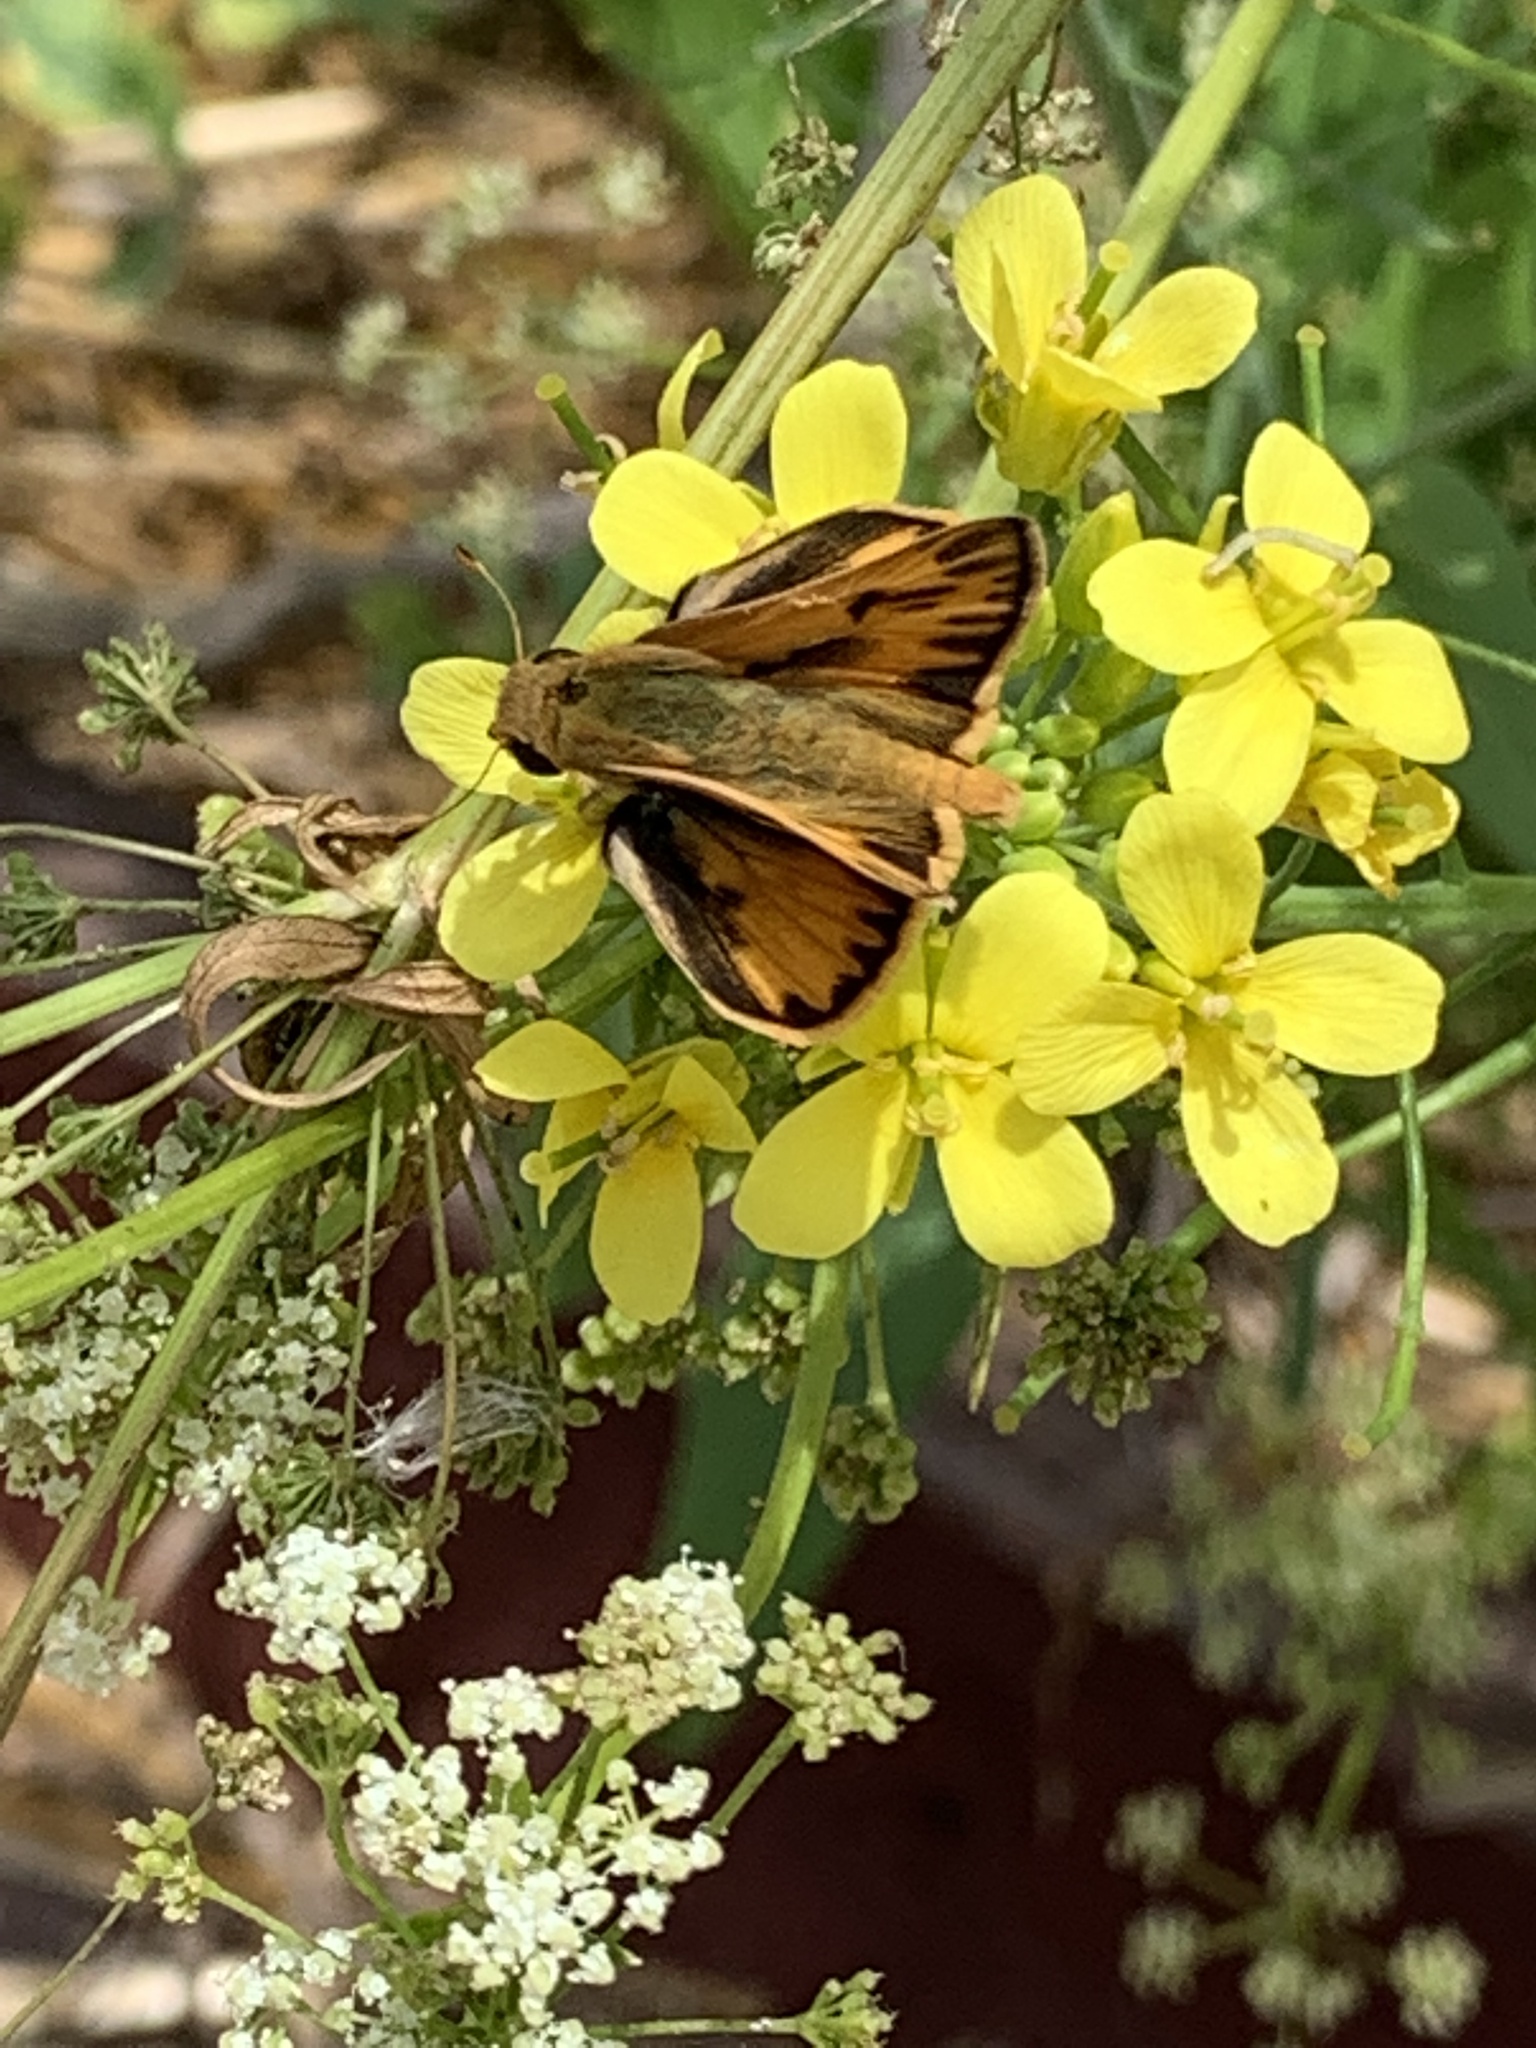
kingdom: Animalia
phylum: Arthropoda
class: Insecta
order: Lepidoptera
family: Hesperiidae
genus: Hylephila
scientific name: Hylephila phyleus
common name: Fiery skipper
